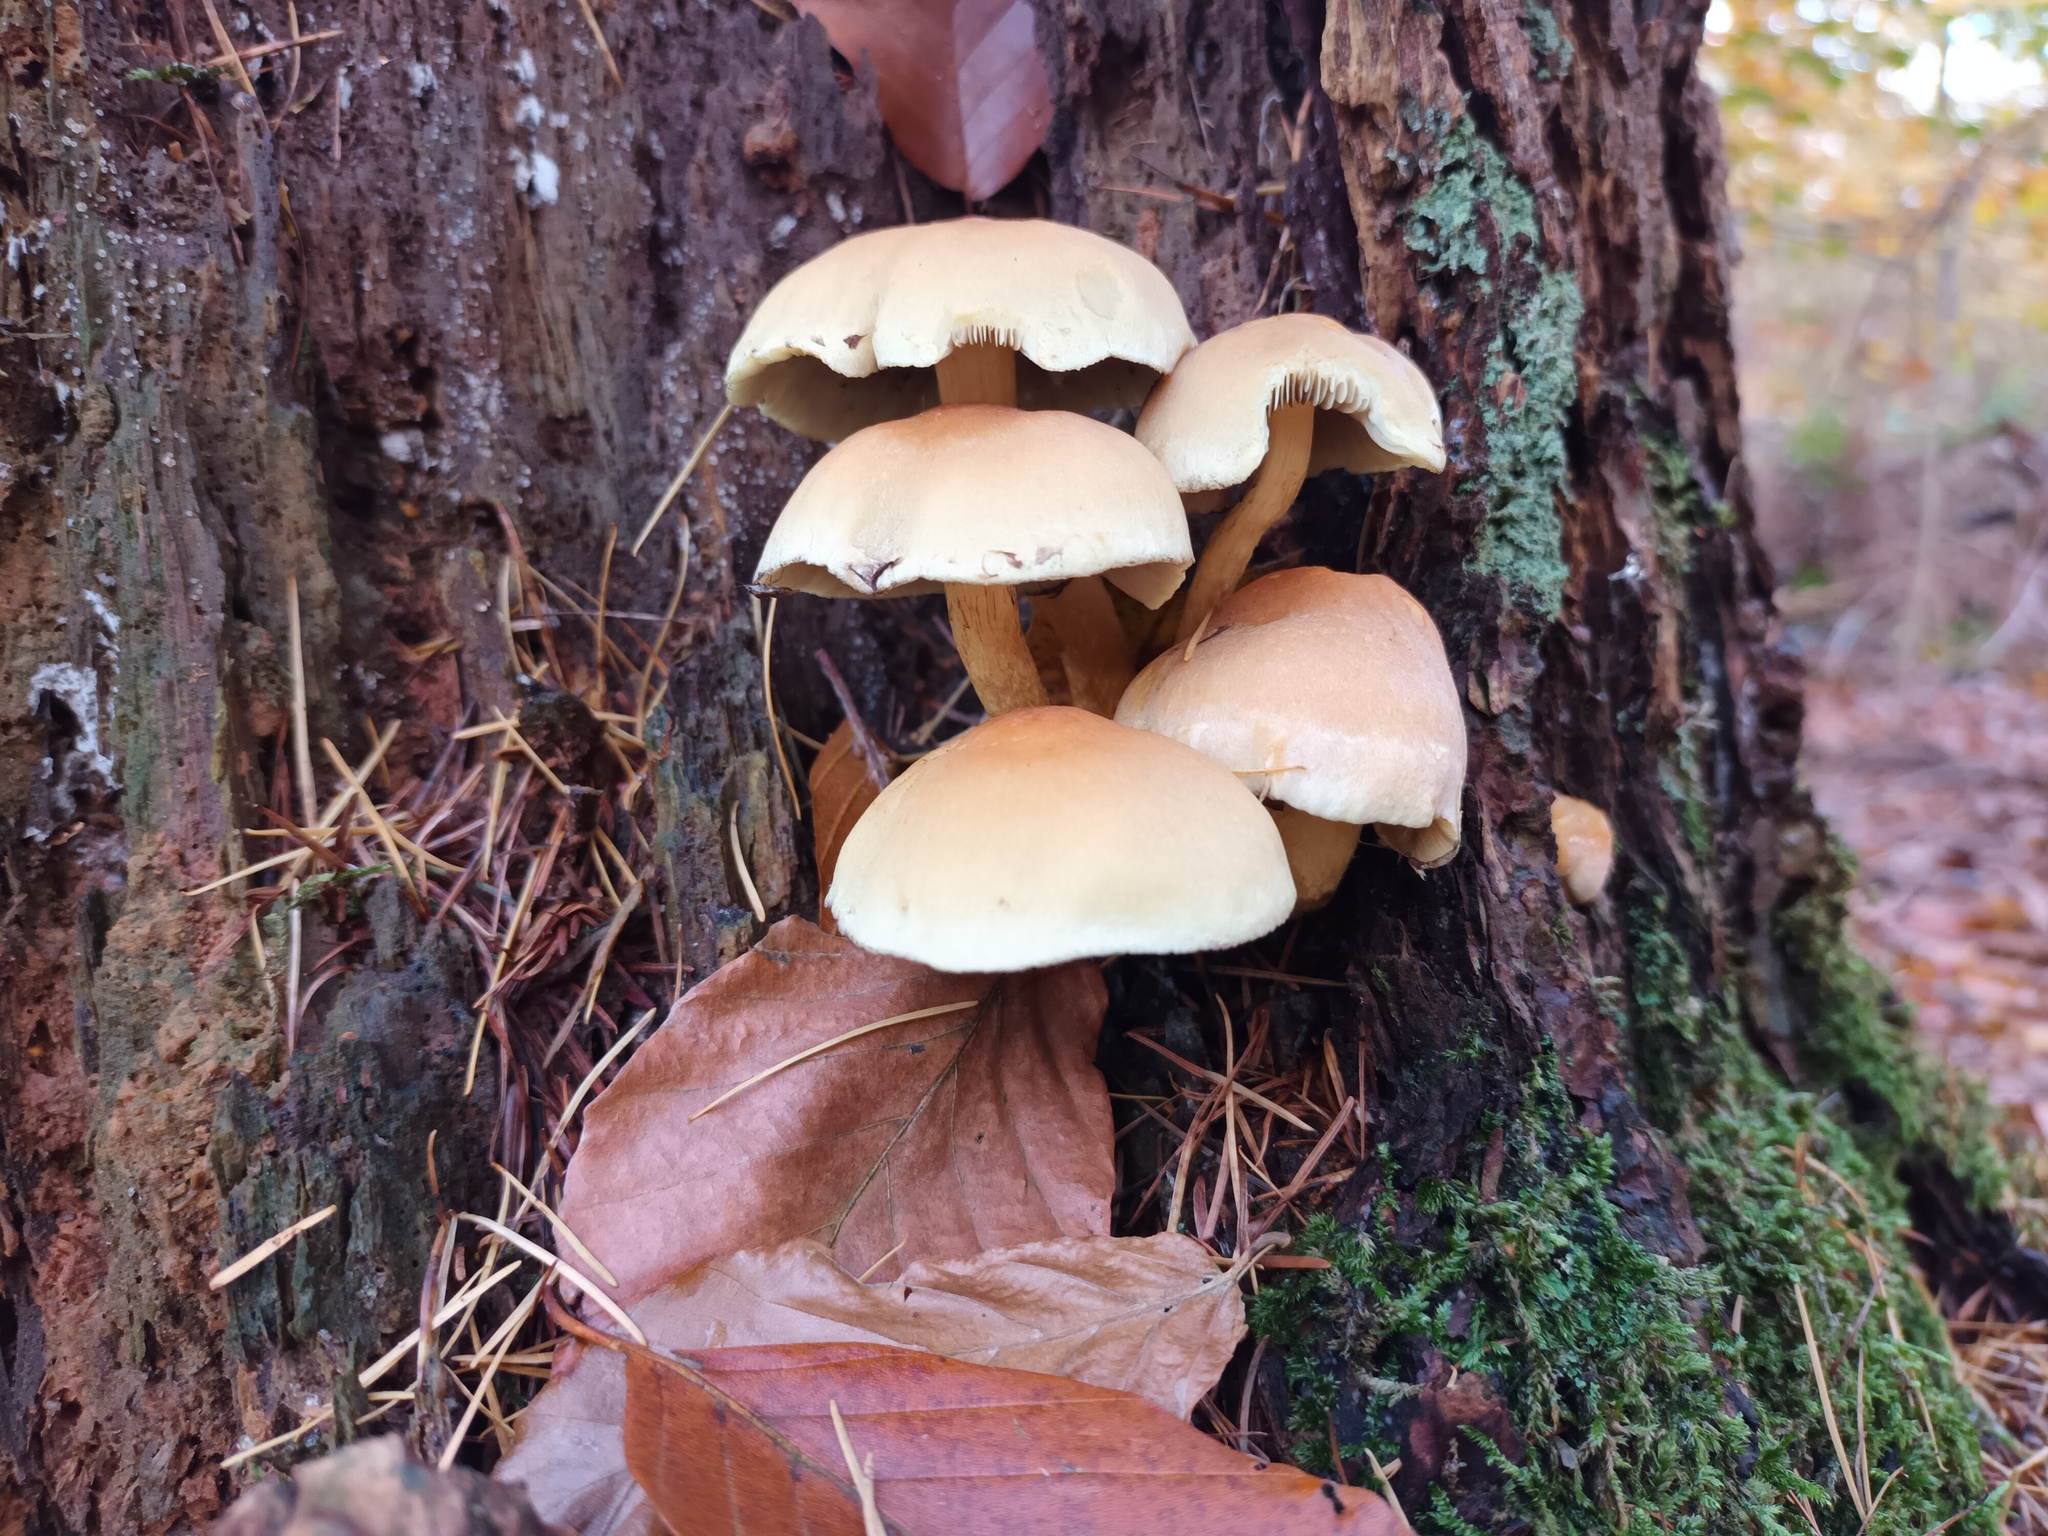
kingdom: Fungi
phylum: Basidiomycota
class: Agaricomycetes
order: Agaricales
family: Strophariaceae
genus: Hypholoma
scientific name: Hypholoma fasciculare
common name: Sulphur tuft
